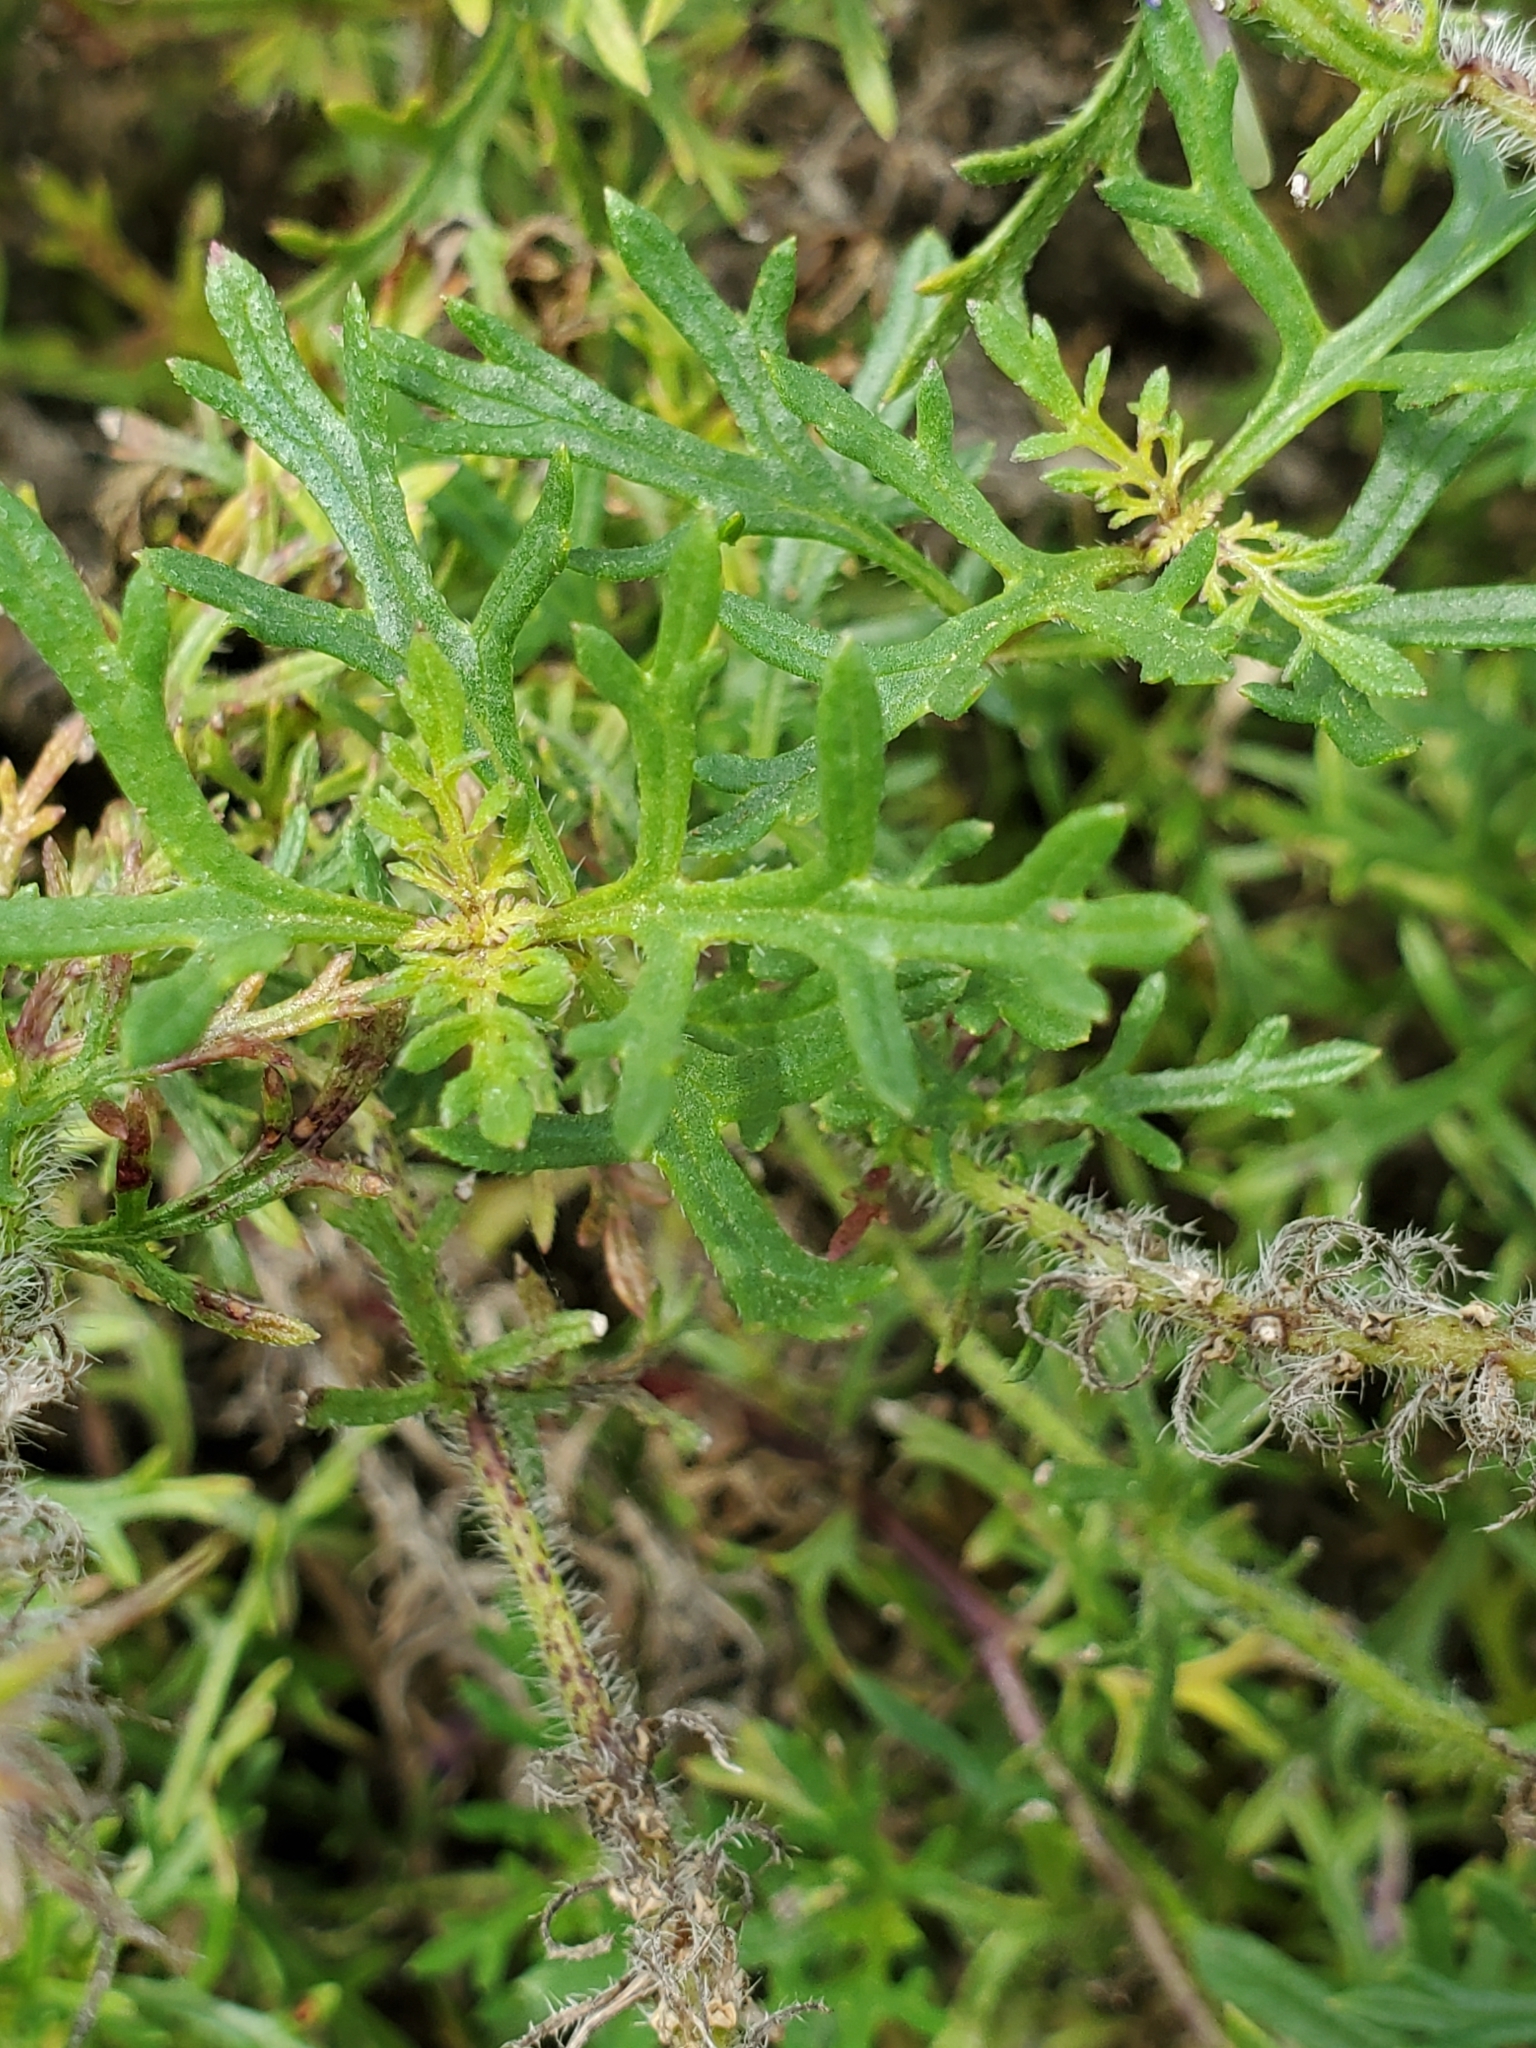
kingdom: Plantae
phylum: Tracheophyta
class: Magnoliopsida
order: Lamiales
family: Verbenaceae
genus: Verbena
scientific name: Verbena bipinnatifida
